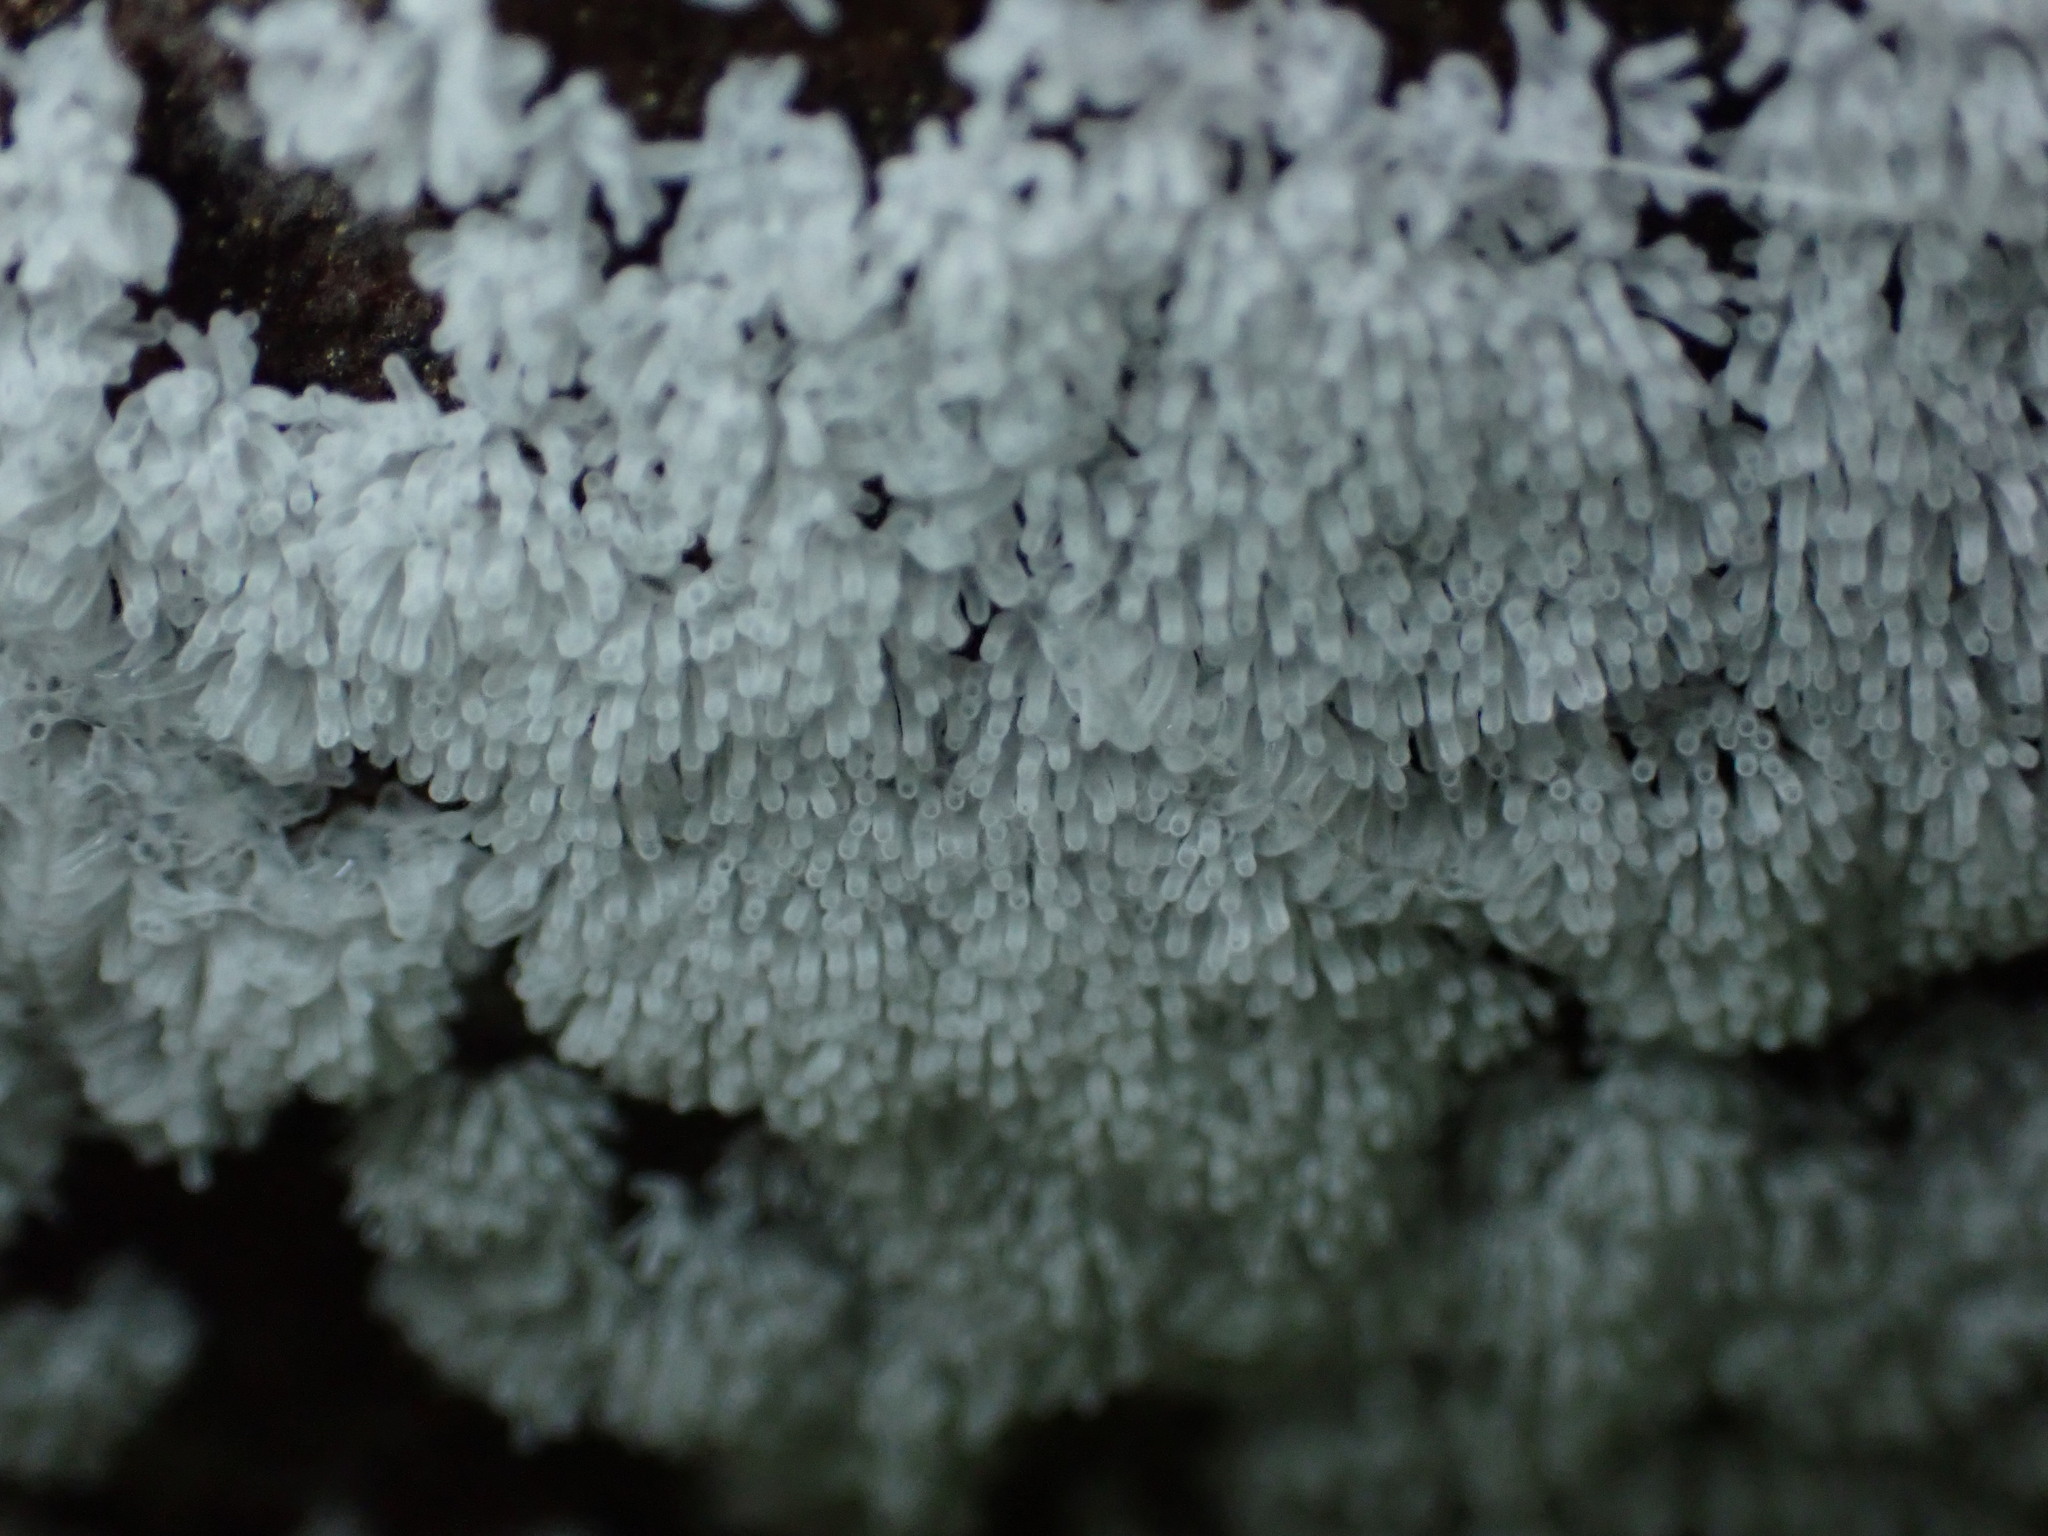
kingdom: Protozoa
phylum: Mycetozoa
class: Protosteliomycetes
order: Ceratiomyxales
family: Ceratiomyxaceae
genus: Ceratiomyxa
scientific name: Ceratiomyxa fruticulosa
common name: Honeycomb coral slime mold
